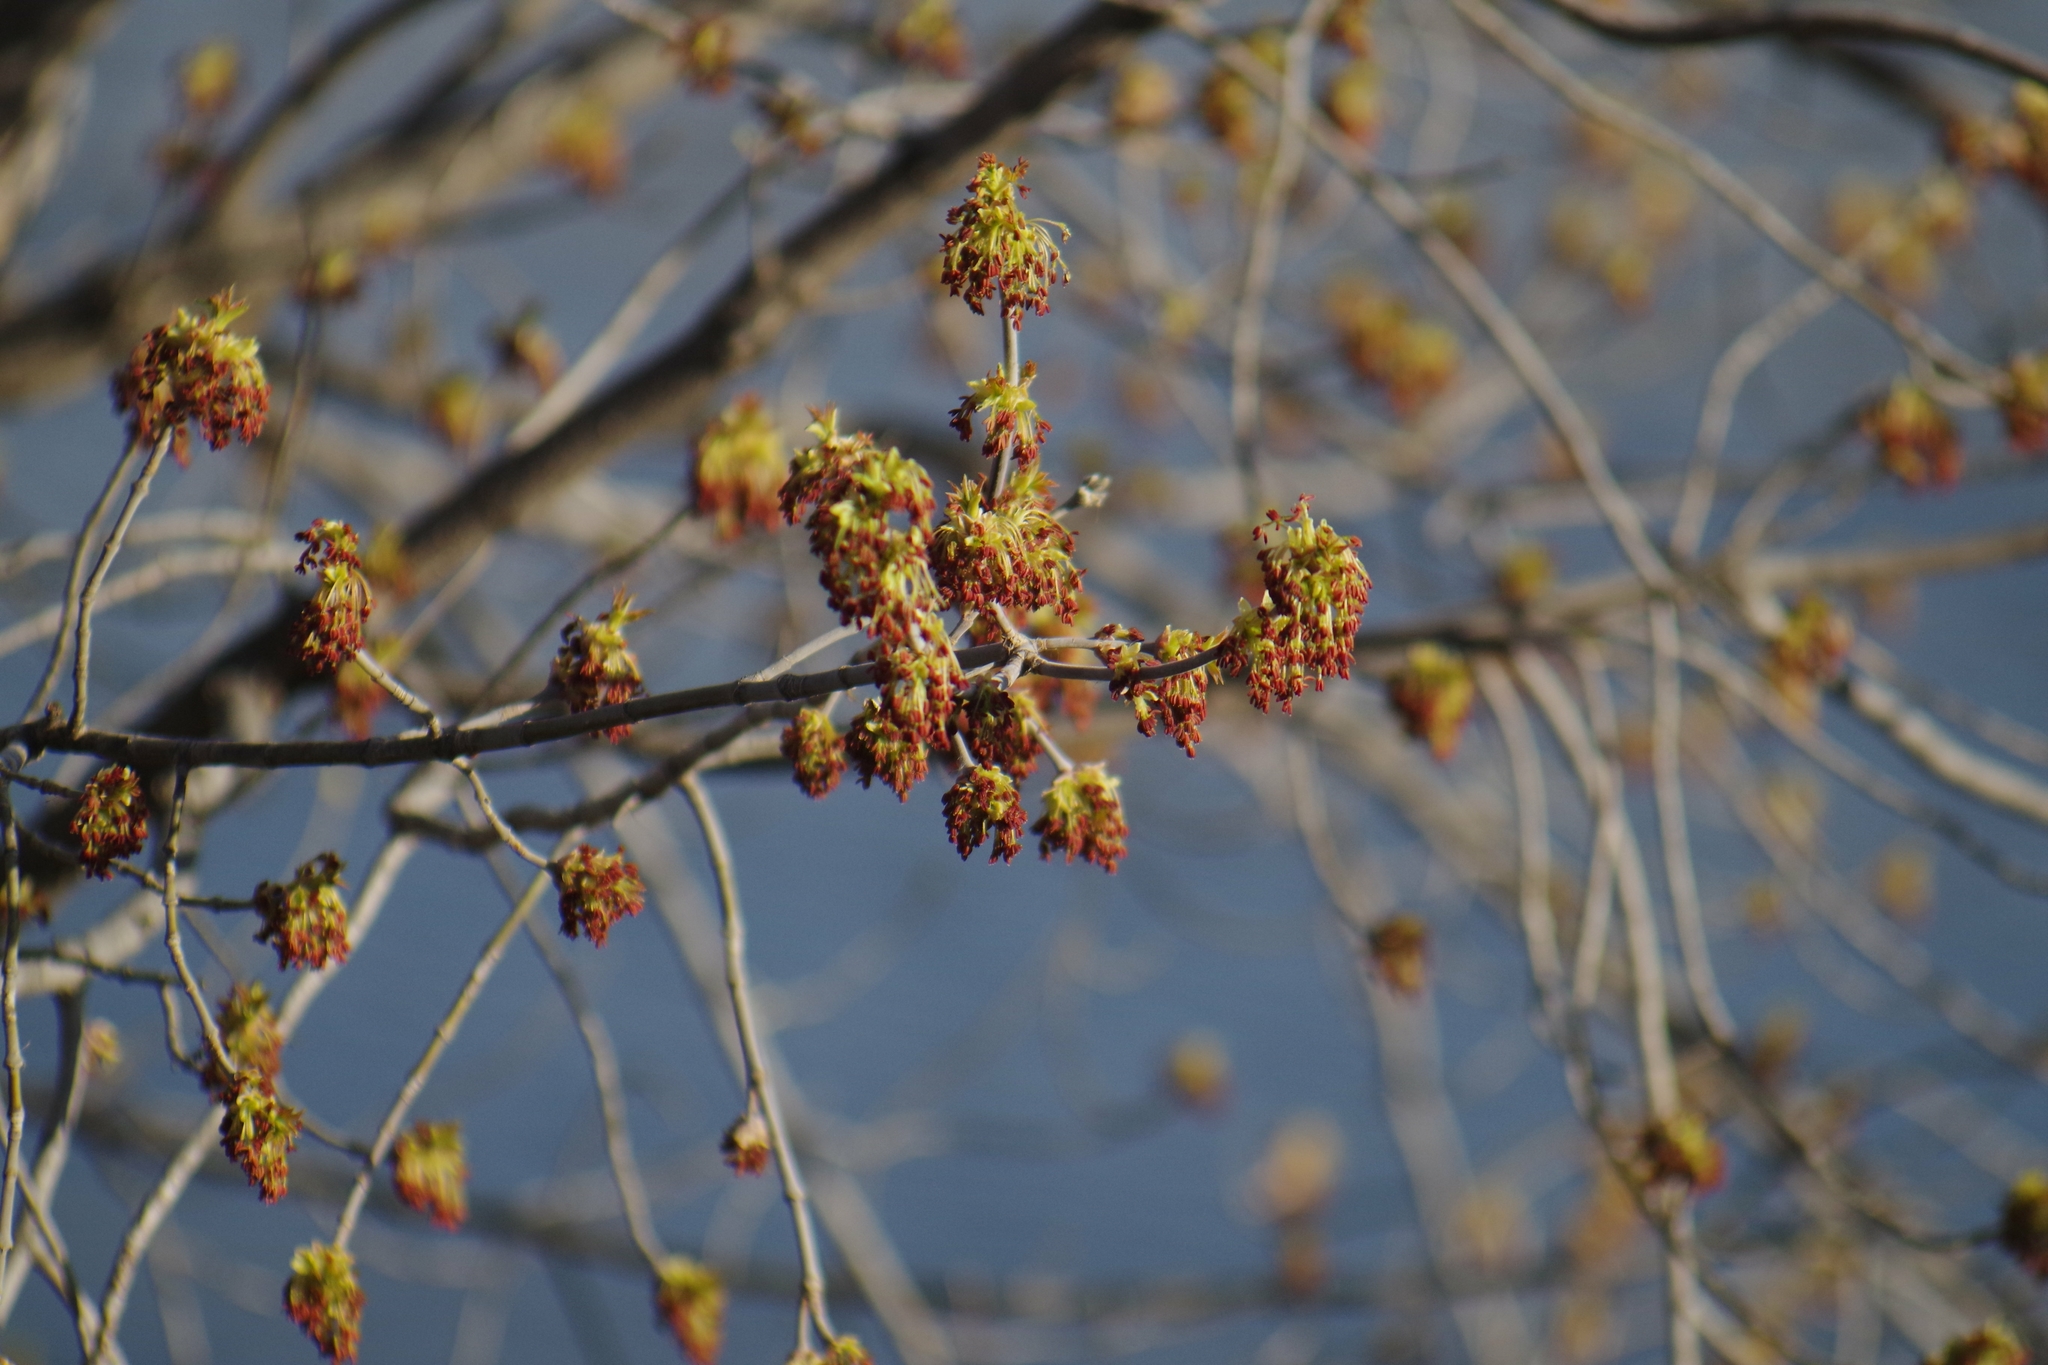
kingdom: Plantae
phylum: Tracheophyta
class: Magnoliopsida
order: Sapindales
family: Sapindaceae
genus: Acer
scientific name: Acer negundo
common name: Ashleaf maple
